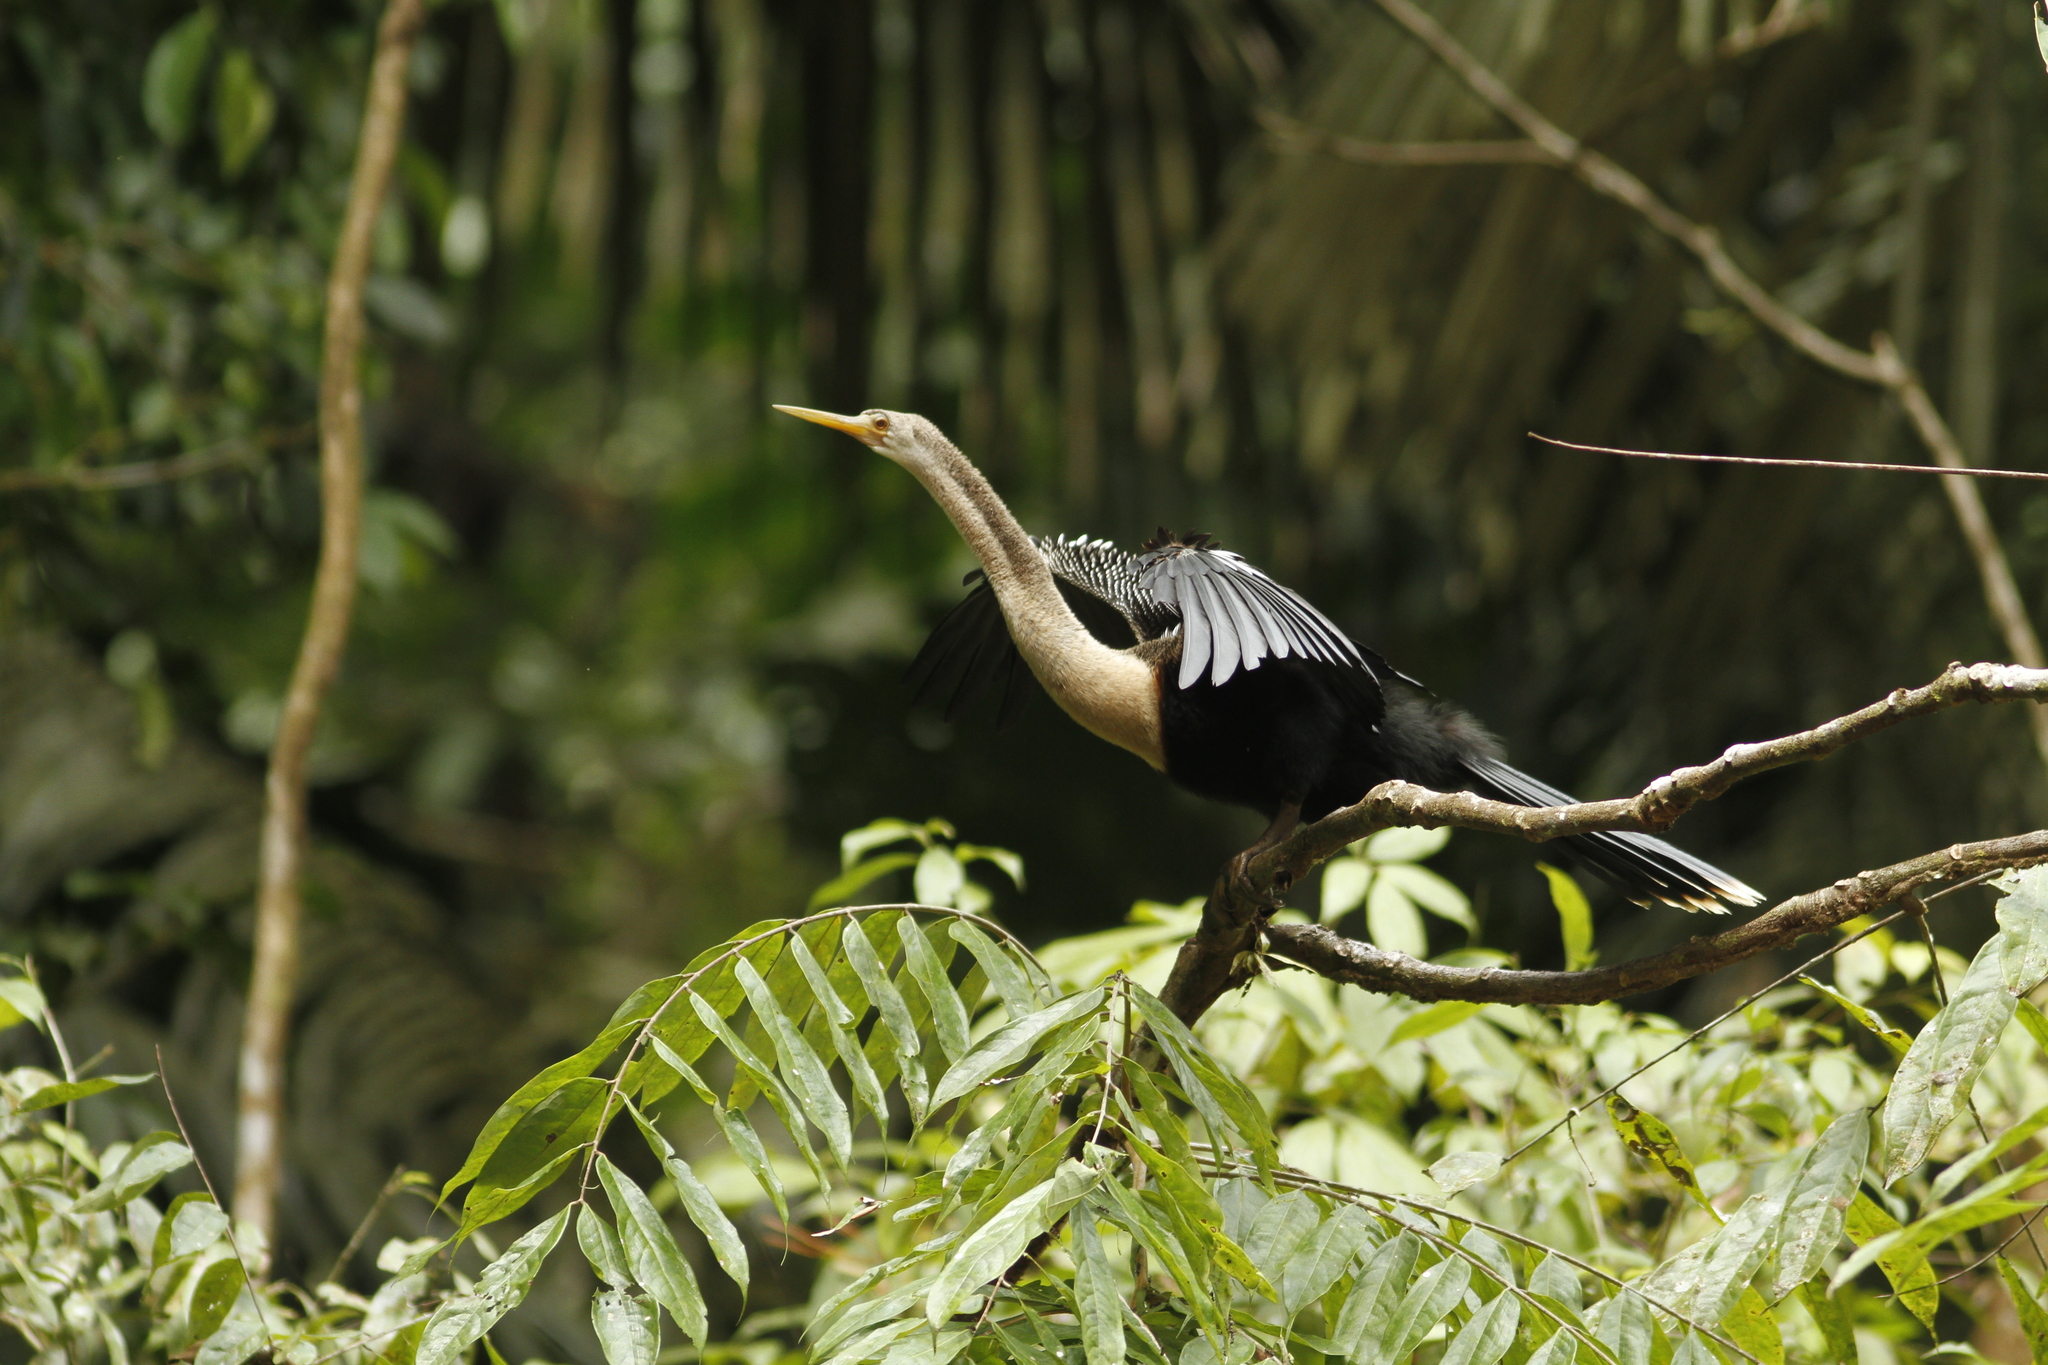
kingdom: Animalia
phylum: Chordata
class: Aves
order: Suliformes
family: Anhingidae
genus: Anhinga
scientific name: Anhinga anhinga
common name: Anhinga
